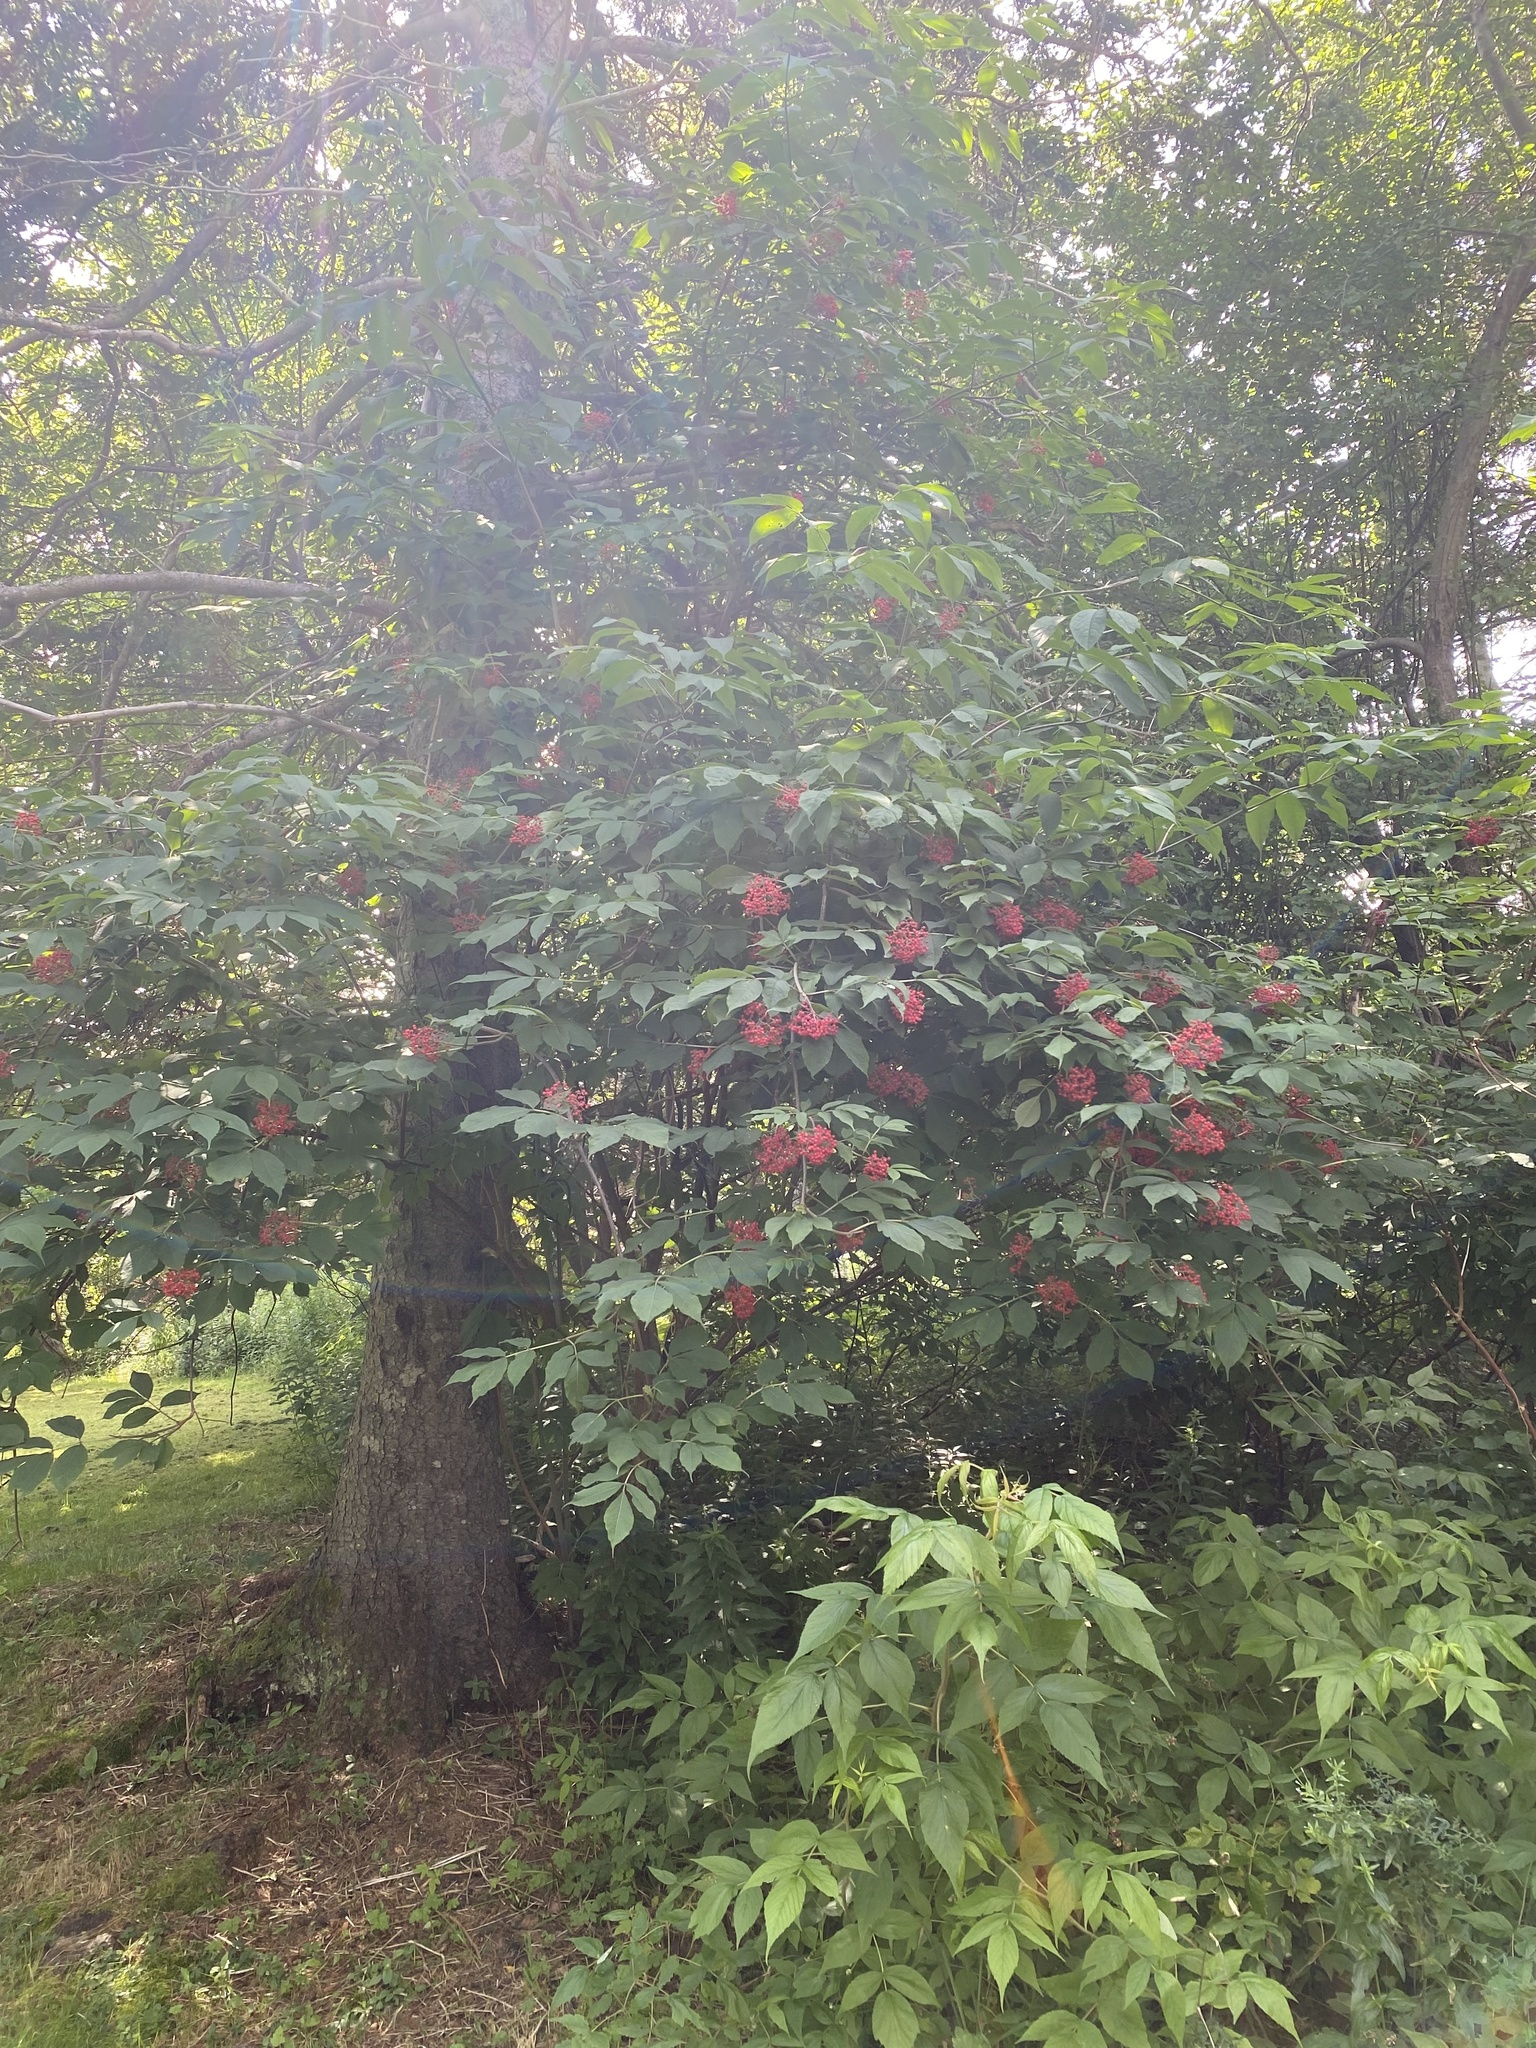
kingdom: Plantae
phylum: Tracheophyta
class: Magnoliopsida
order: Dipsacales
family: Viburnaceae
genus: Sambucus
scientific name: Sambucus racemosa
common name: Red-berried elder
